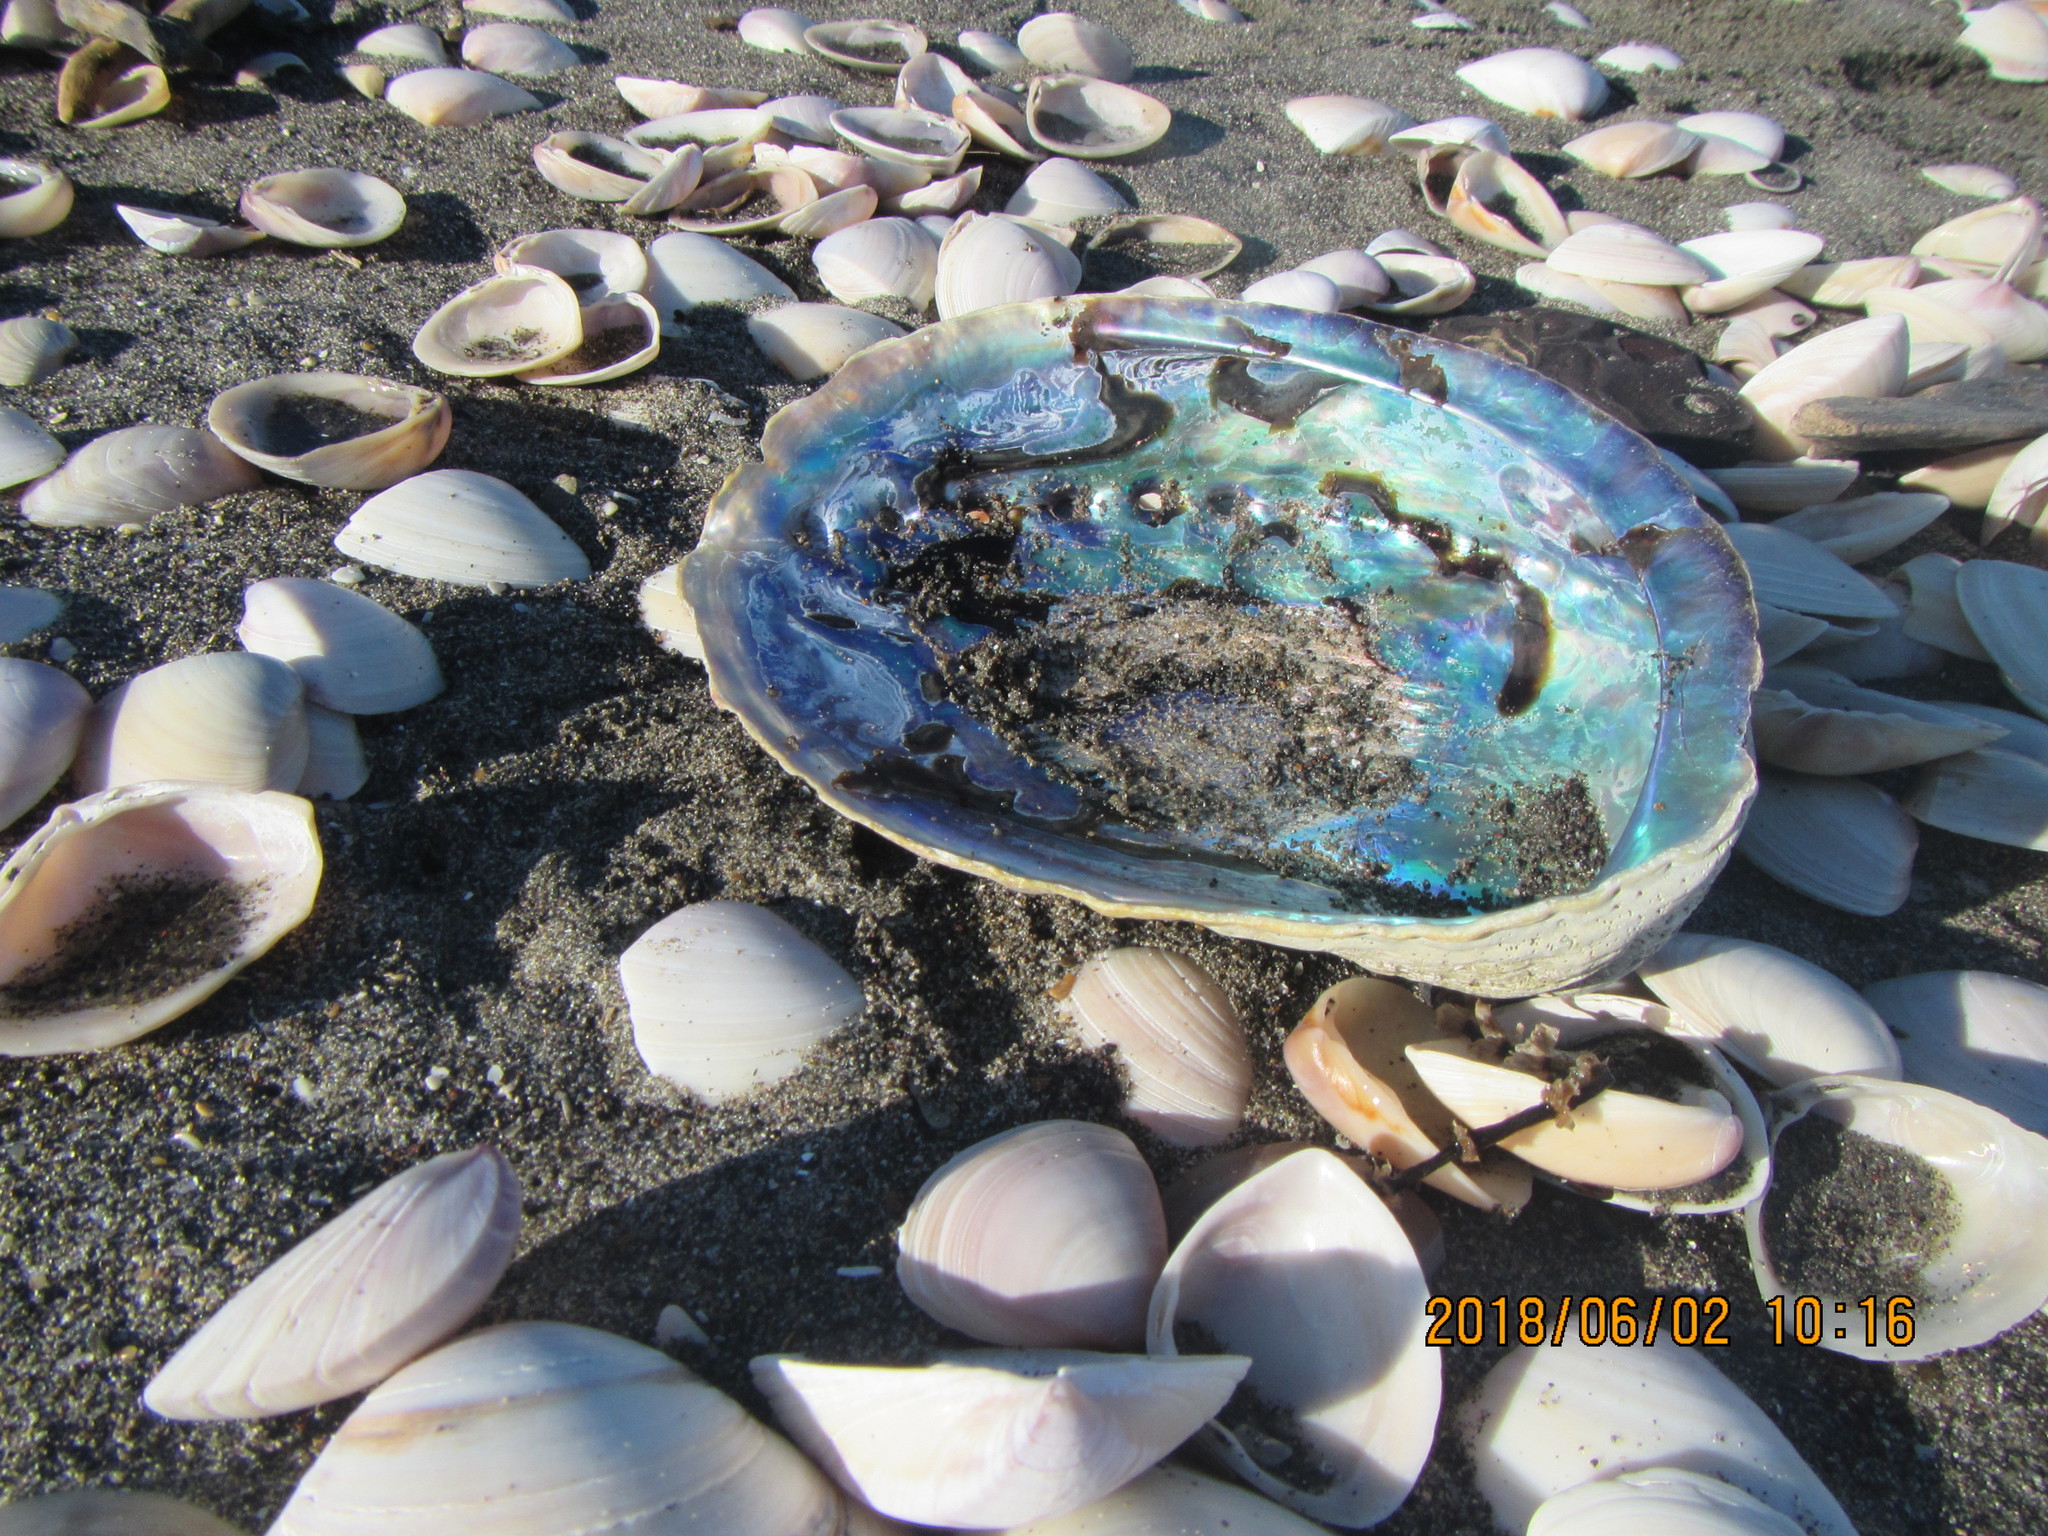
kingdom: Animalia
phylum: Mollusca
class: Gastropoda
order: Lepetellida
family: Haliotidae
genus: Haliotis
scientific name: Haliotis iris
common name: Abalone
